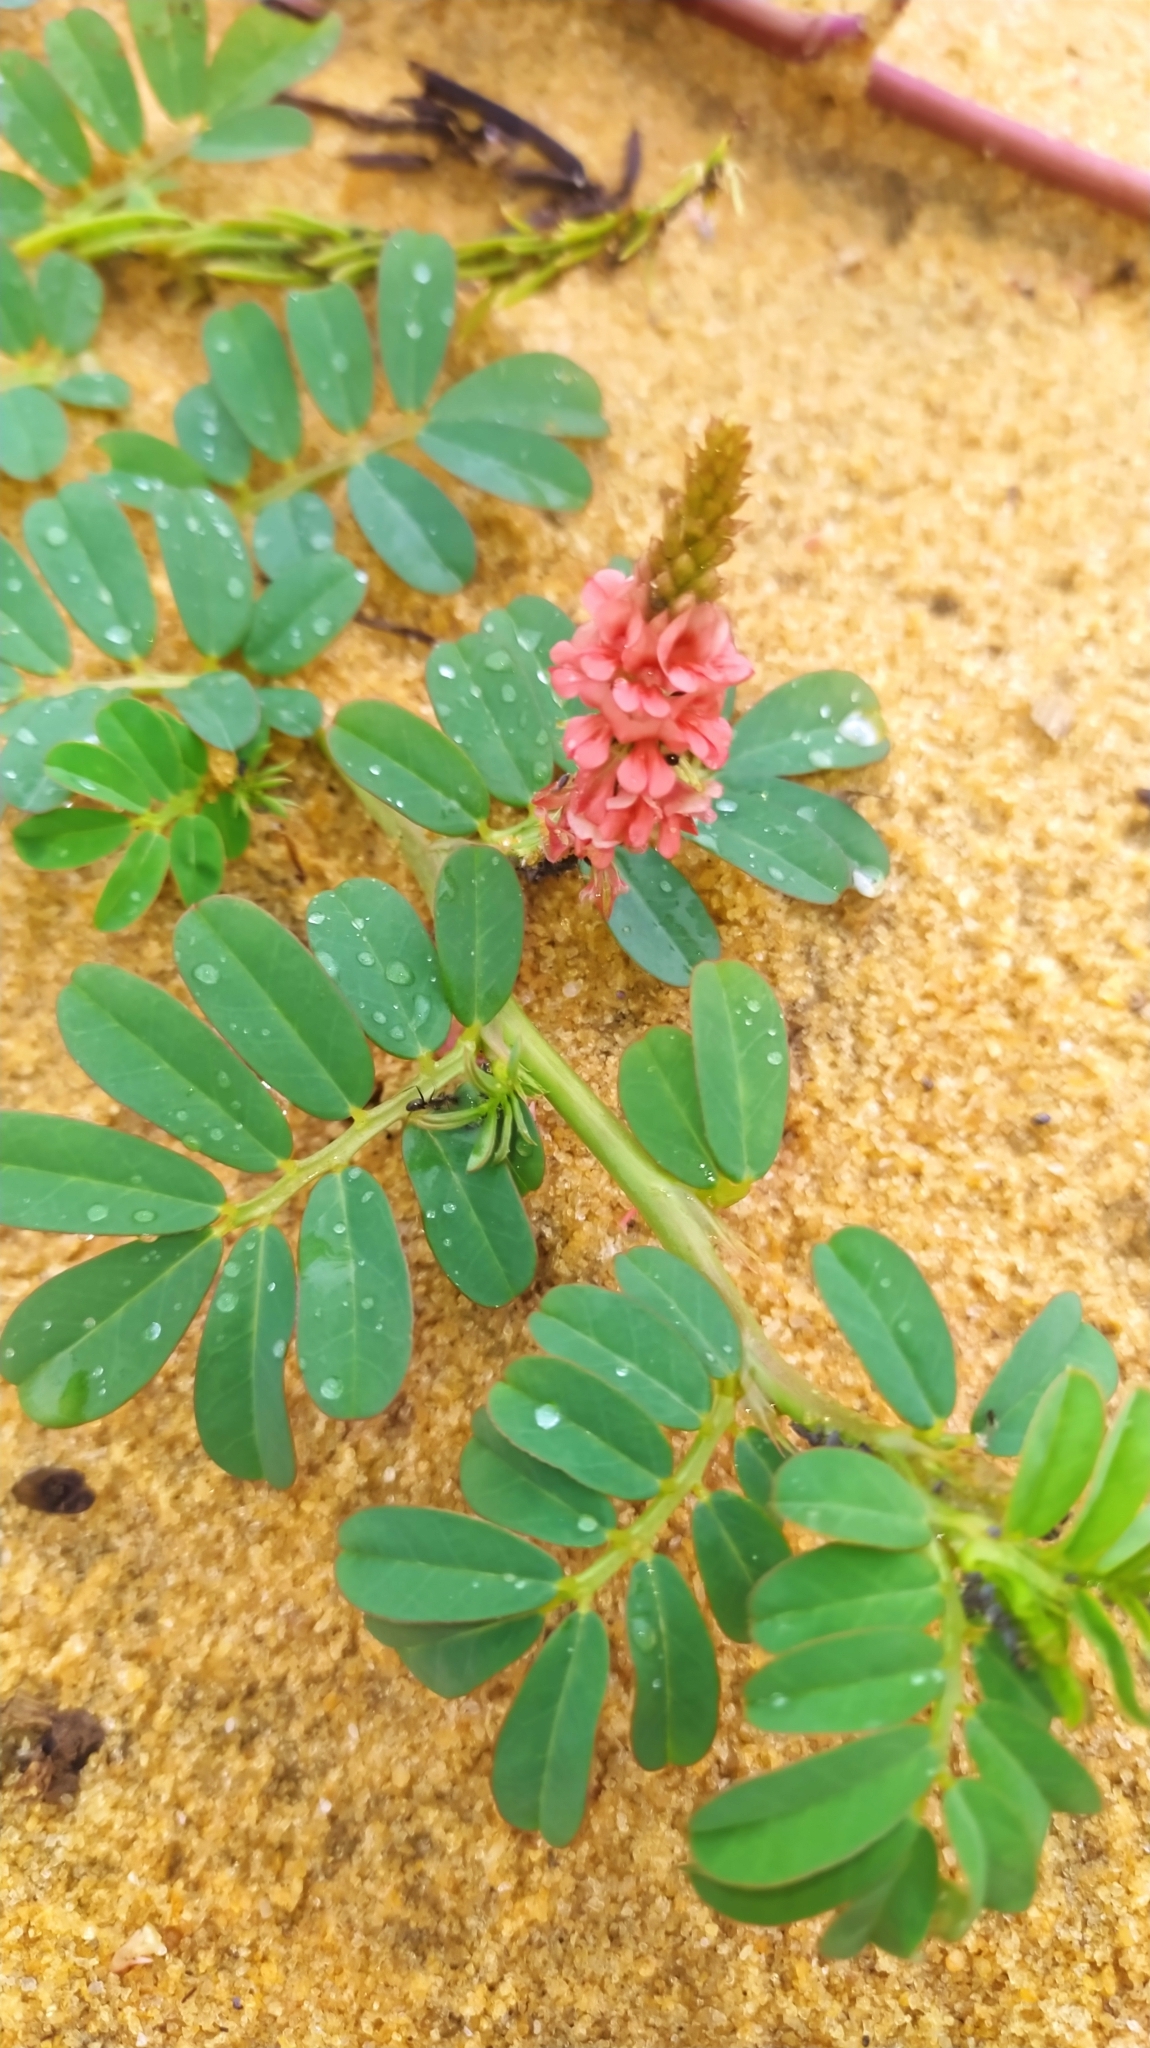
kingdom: Plantae
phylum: Tracheophyta
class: Magnoliopsida
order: Fabales
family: Fabaceae
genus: Indigofera
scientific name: Indigofera hendecaphylla
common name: Trailing indigo
